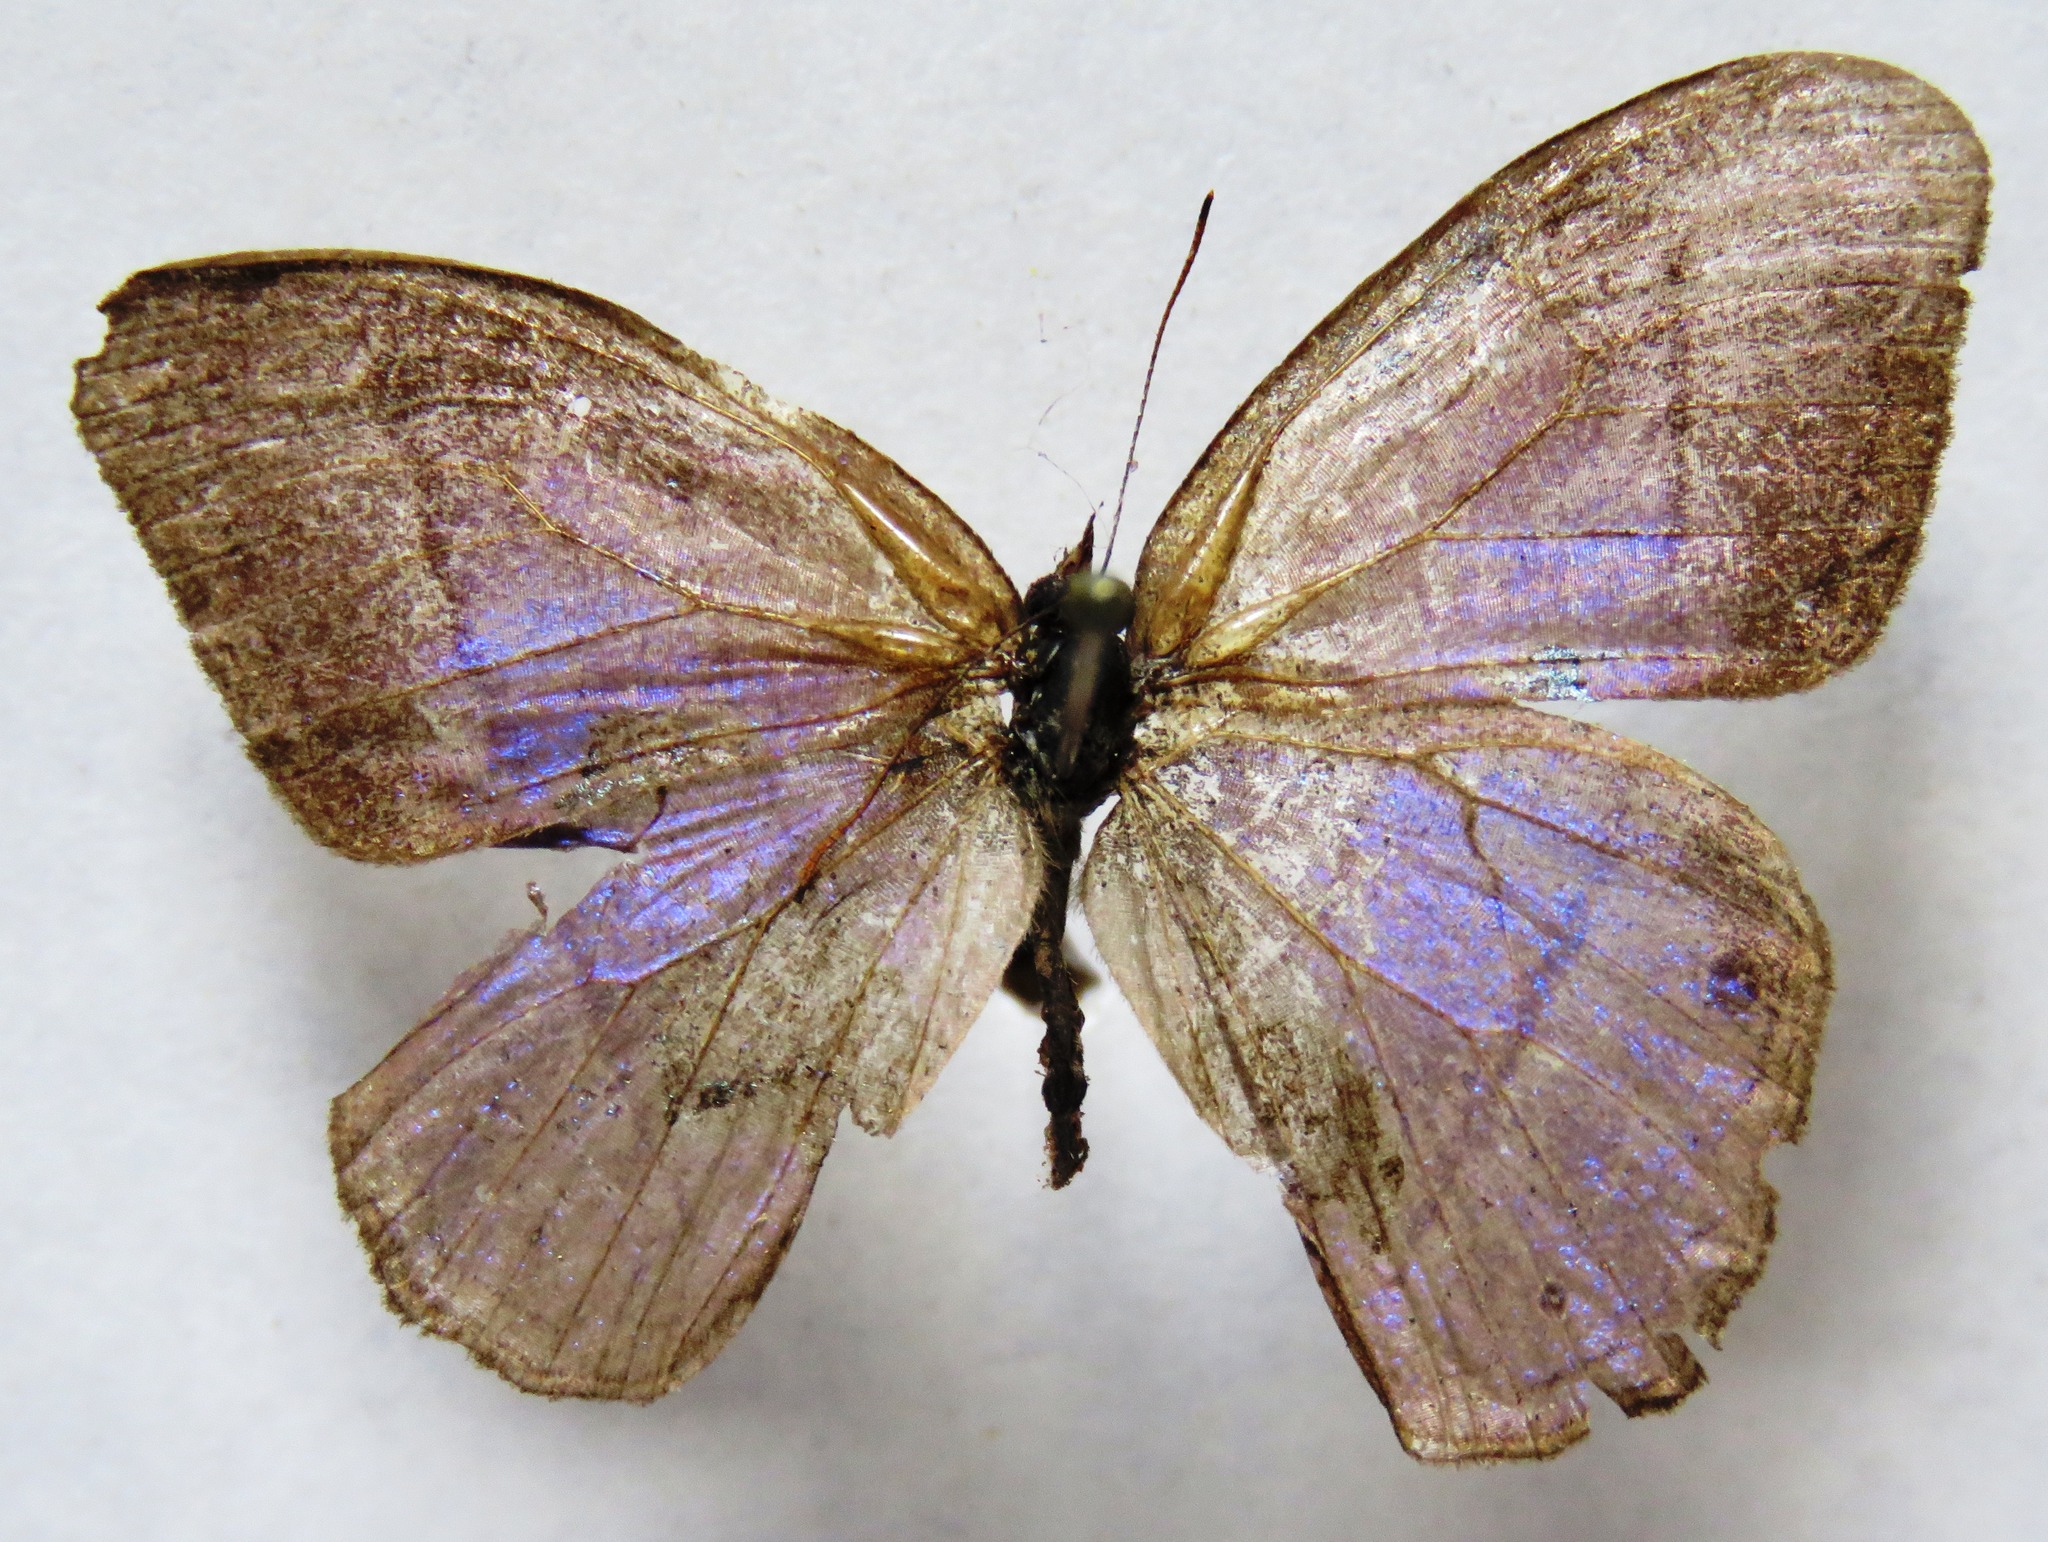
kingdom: Animalia
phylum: Arthropoda
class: Insecta
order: Lepidoptera
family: Nymphalidae
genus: Amiga
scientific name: Amiga sericeella
